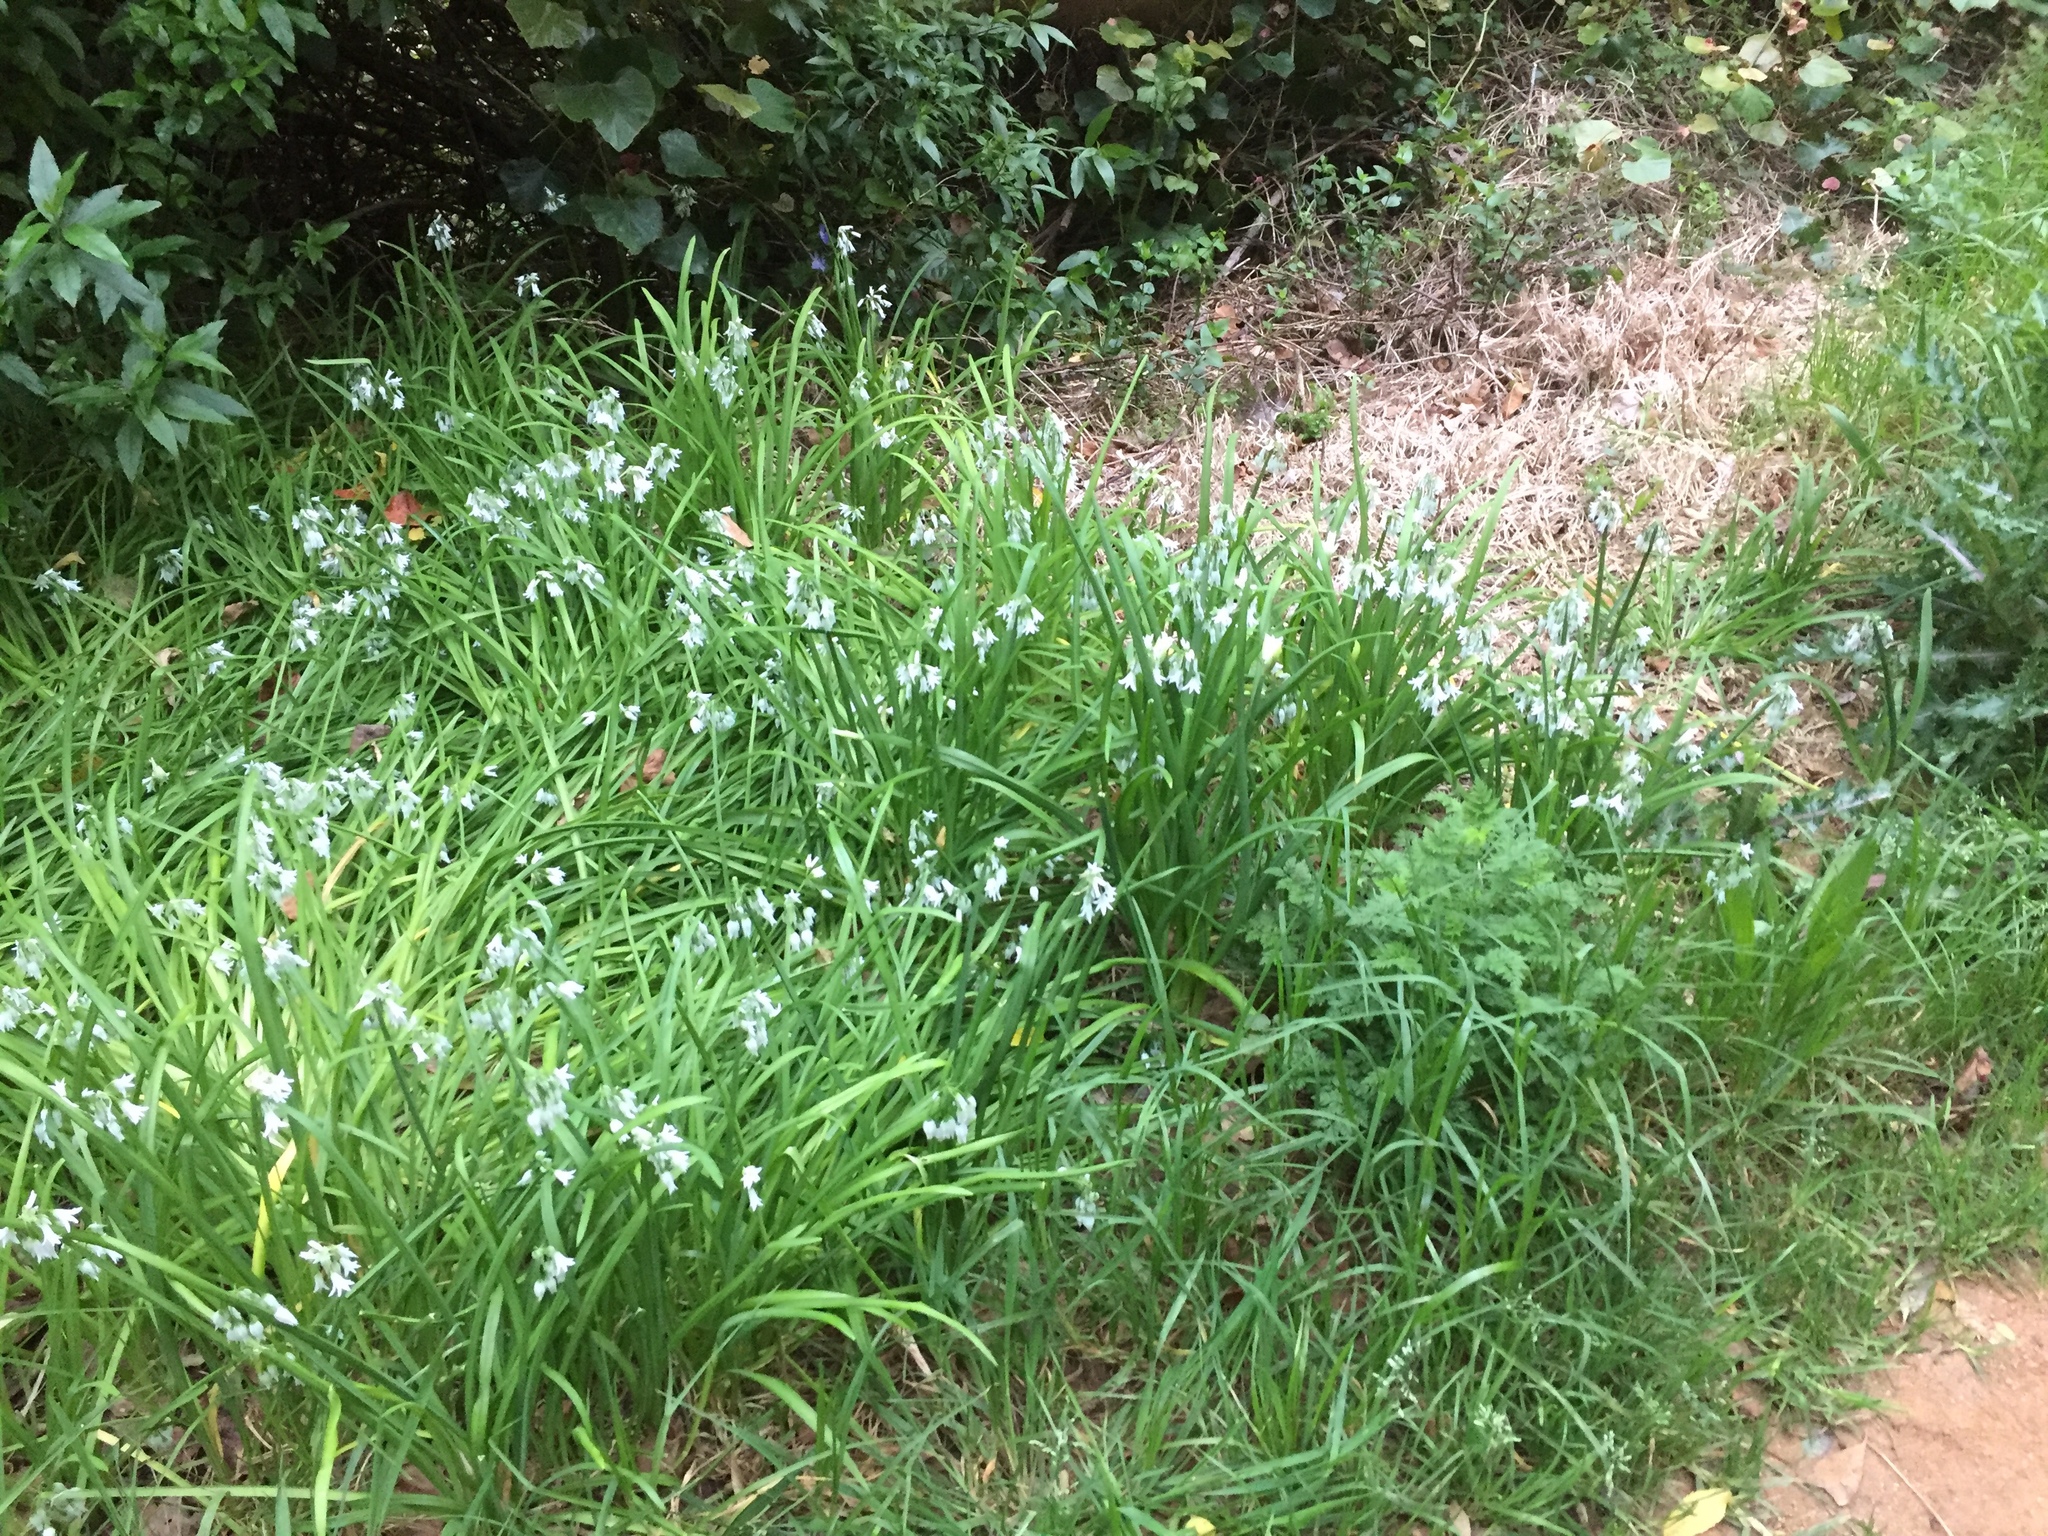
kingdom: Plantae
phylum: Tracheophyta
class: Liliopsida
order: Asparagales
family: Amaryllidaceae
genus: Allium
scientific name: Allium triquetrum
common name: Three-cornered garlic
